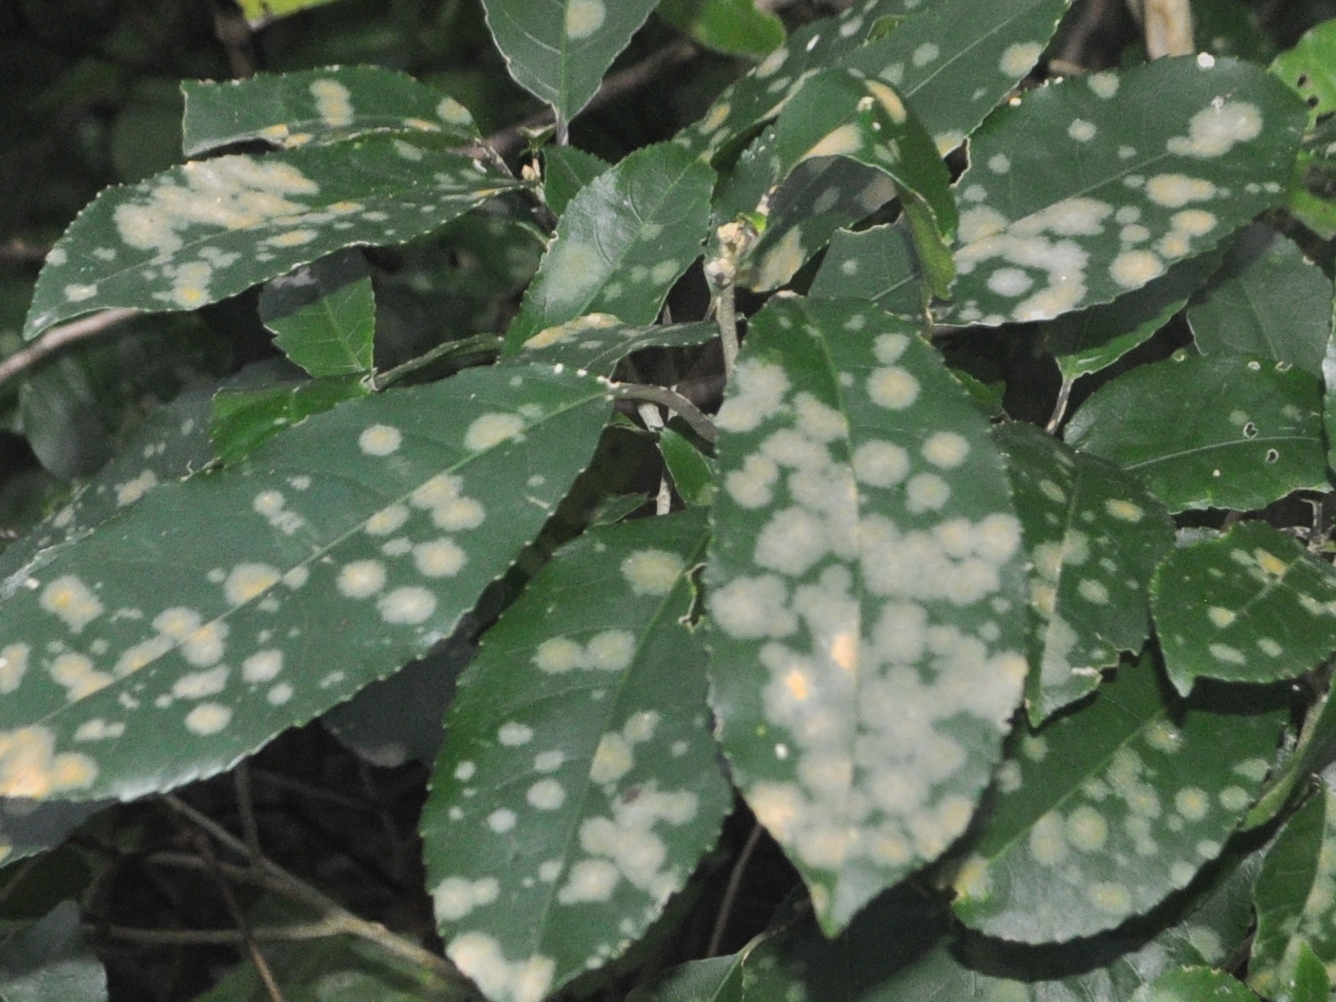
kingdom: Plantae
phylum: Chlorophyta
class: Ulvophyceae
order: Trentepohliales
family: Trentepohliaceae
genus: Cephaleuros
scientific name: Cephaleuros
